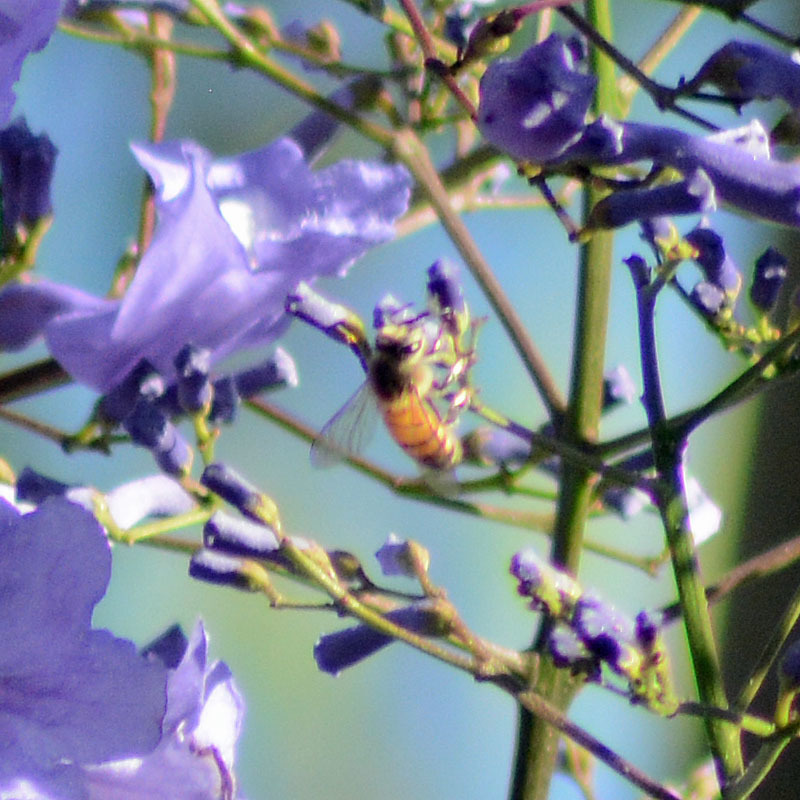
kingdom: Animalia
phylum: Arthropoda
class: Insecta
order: Hymenoptera
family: Apidae
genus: Apis
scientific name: Apis mellifera
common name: Honey bee
